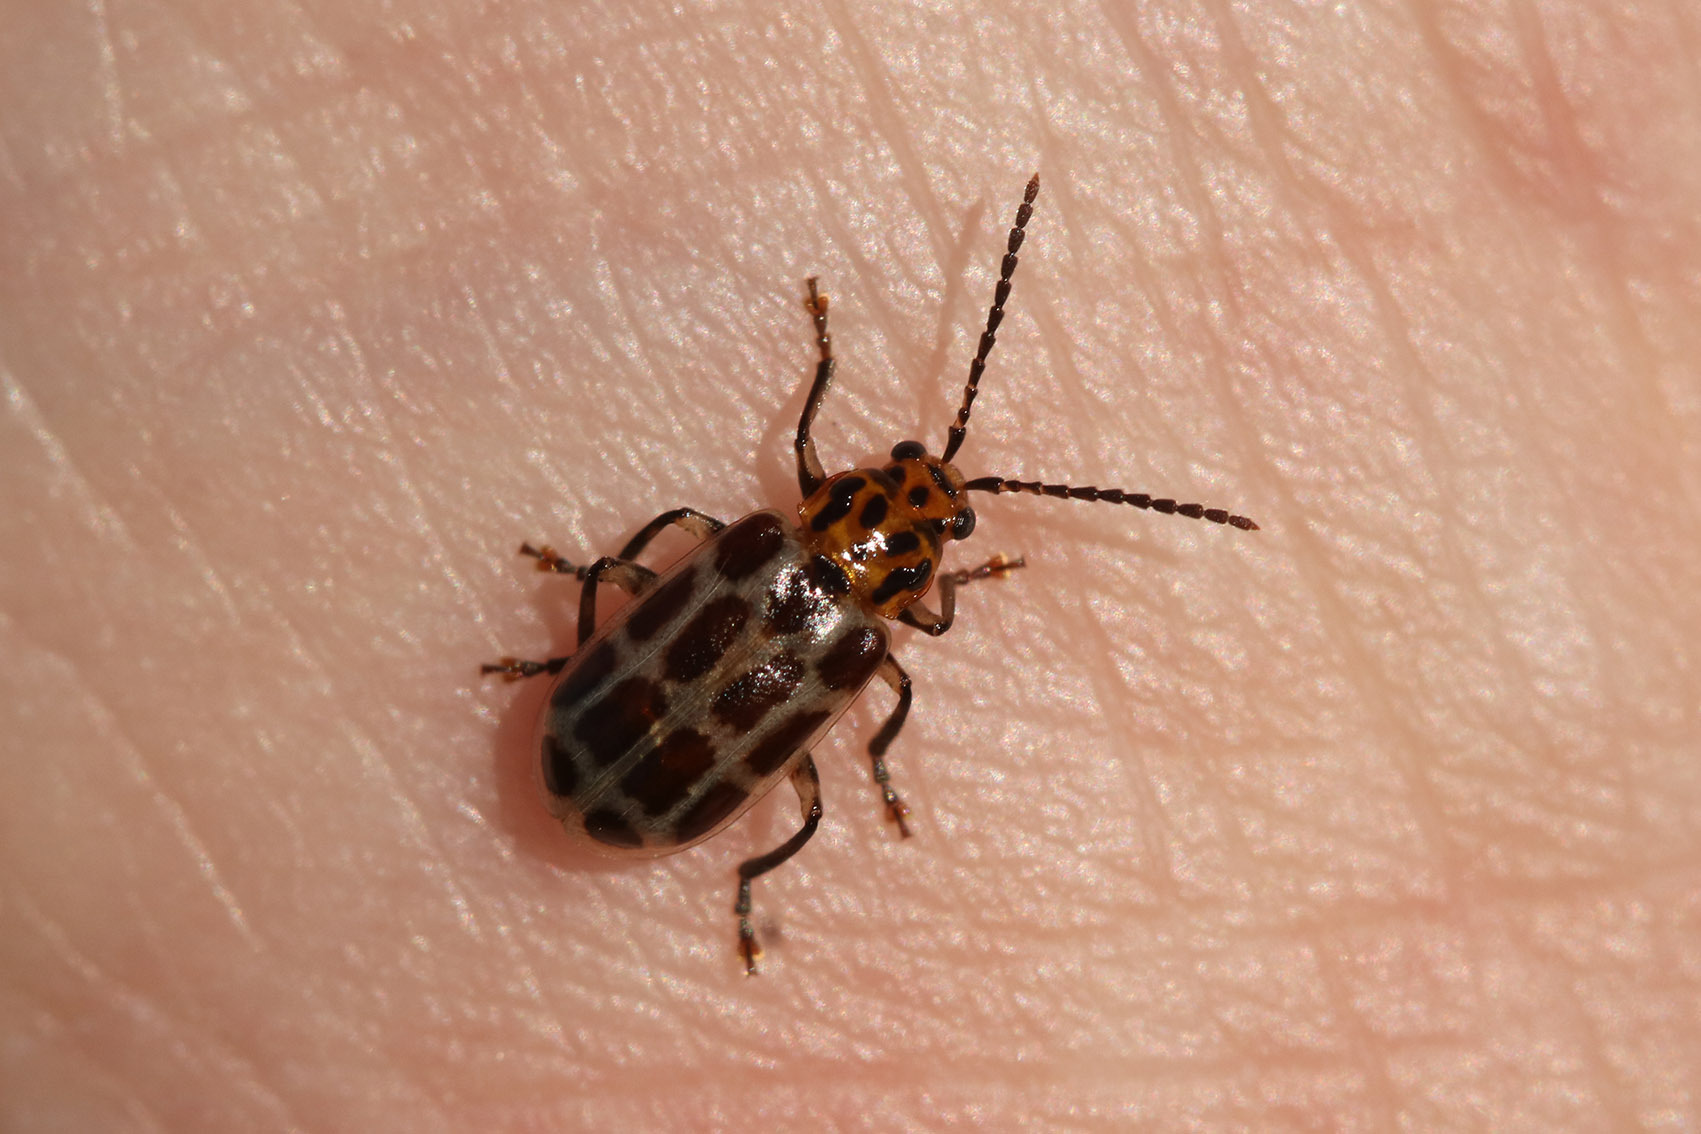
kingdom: Animalia
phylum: Arthropoda
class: Insecta
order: Coleoptera
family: Chrysomelidae
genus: Anisobrotica
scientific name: Anisobrotica
